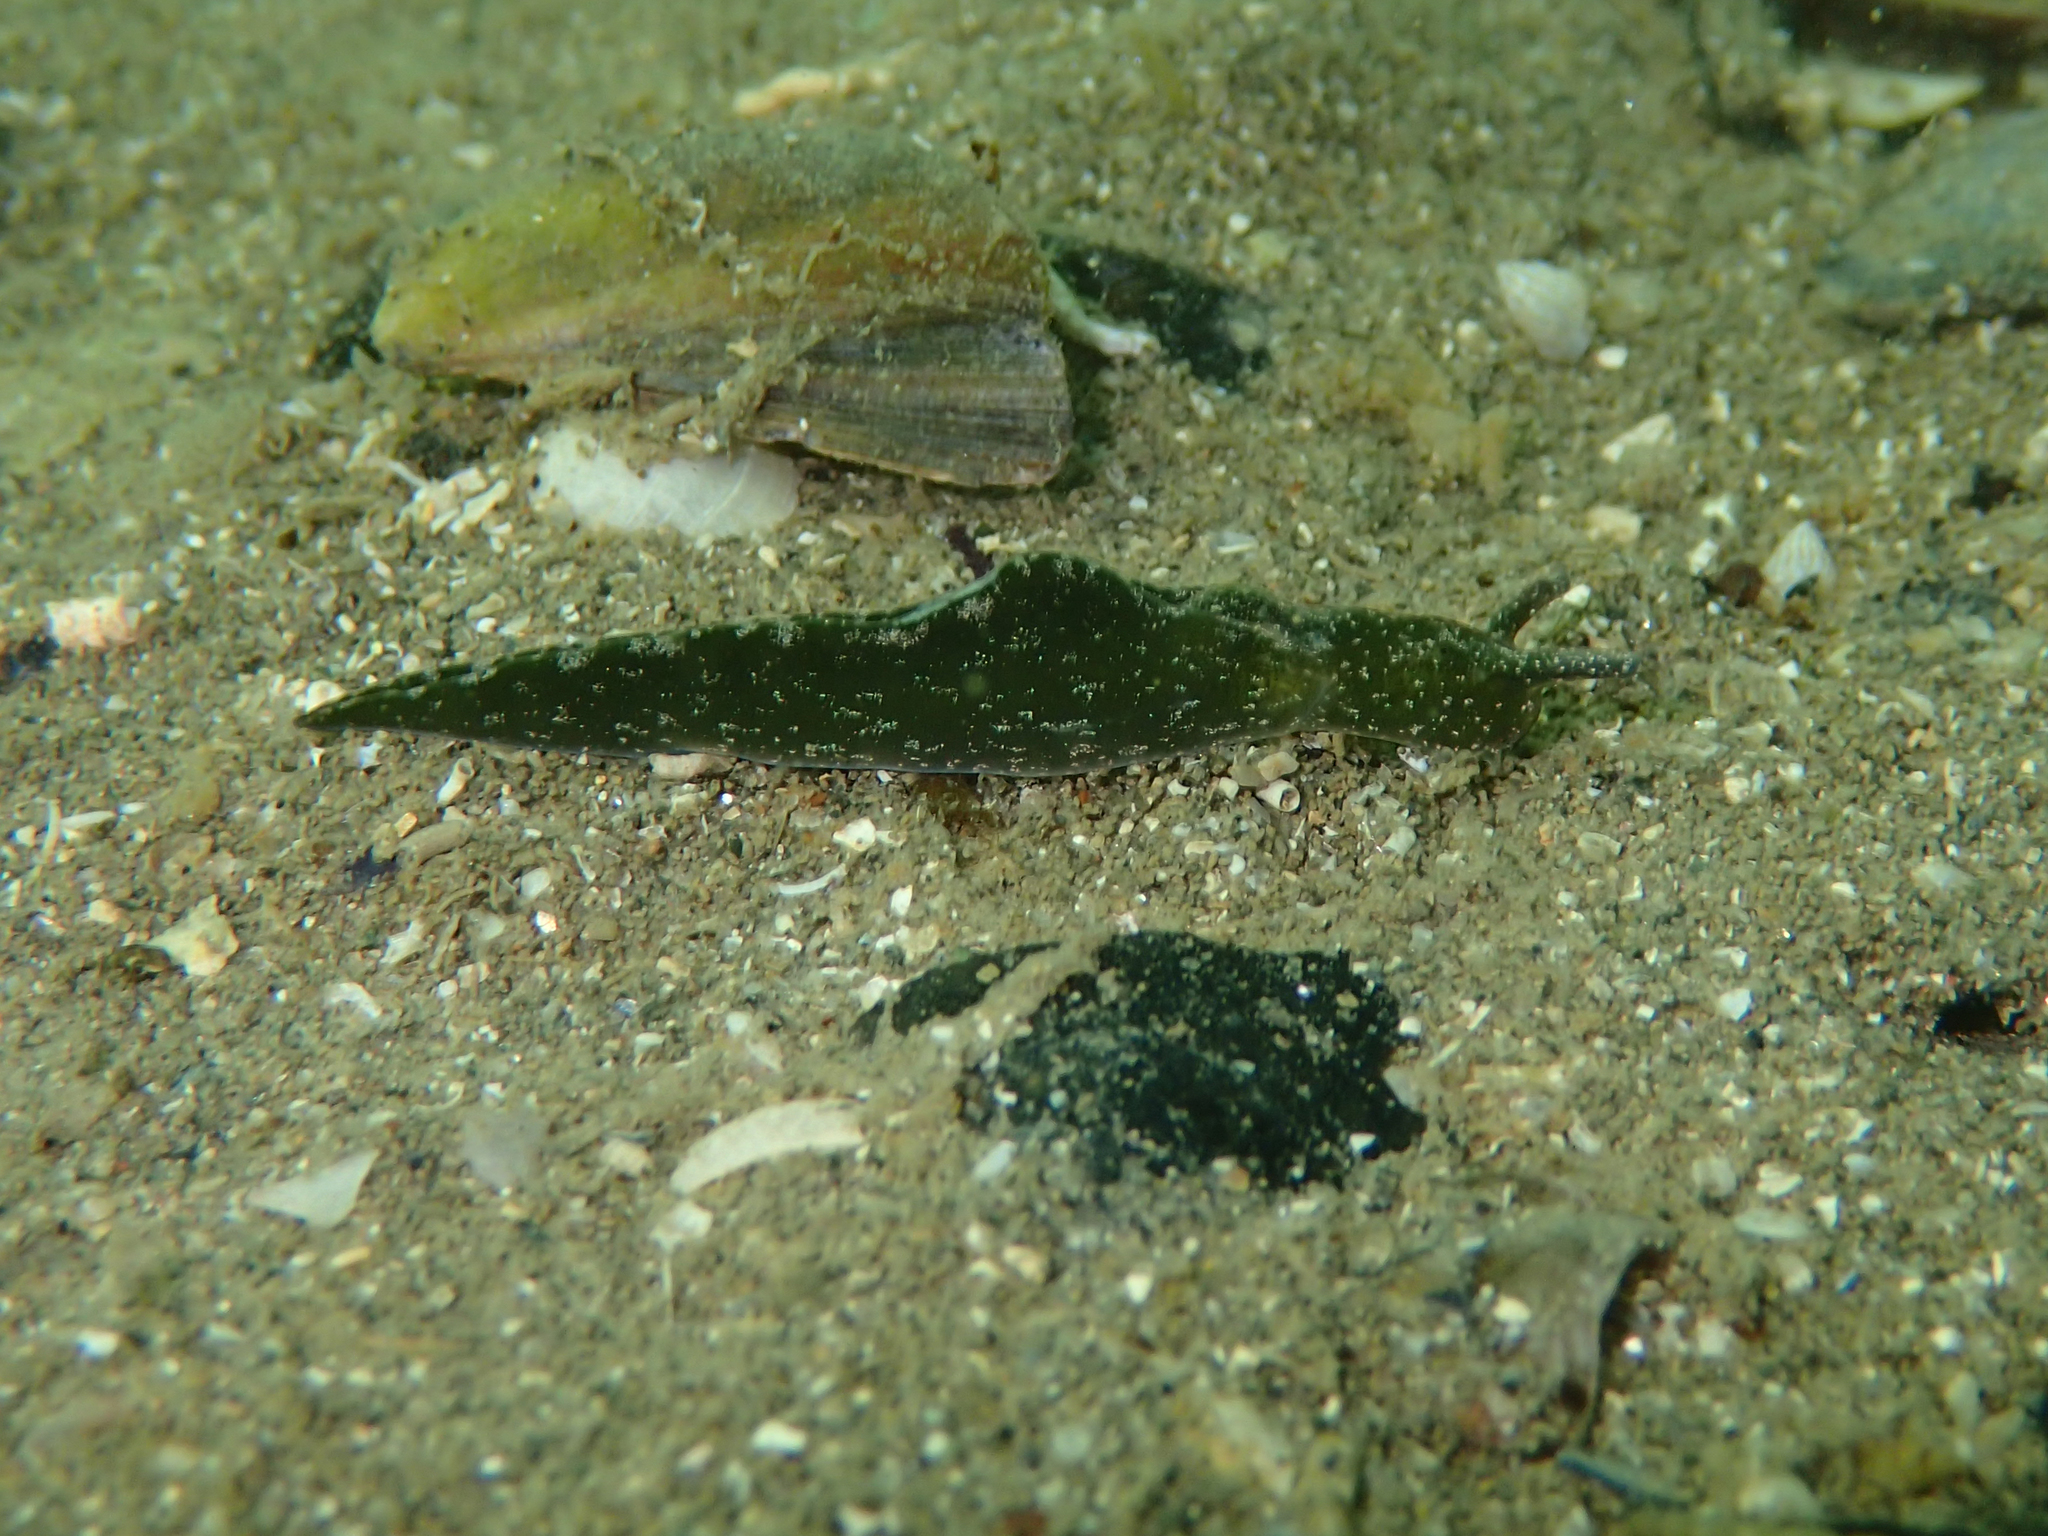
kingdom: Animalia
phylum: Mollusca
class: Gastropoda
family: Plakobranchidae
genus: Elysia
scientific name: Elysia viridis
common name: Green elysia
